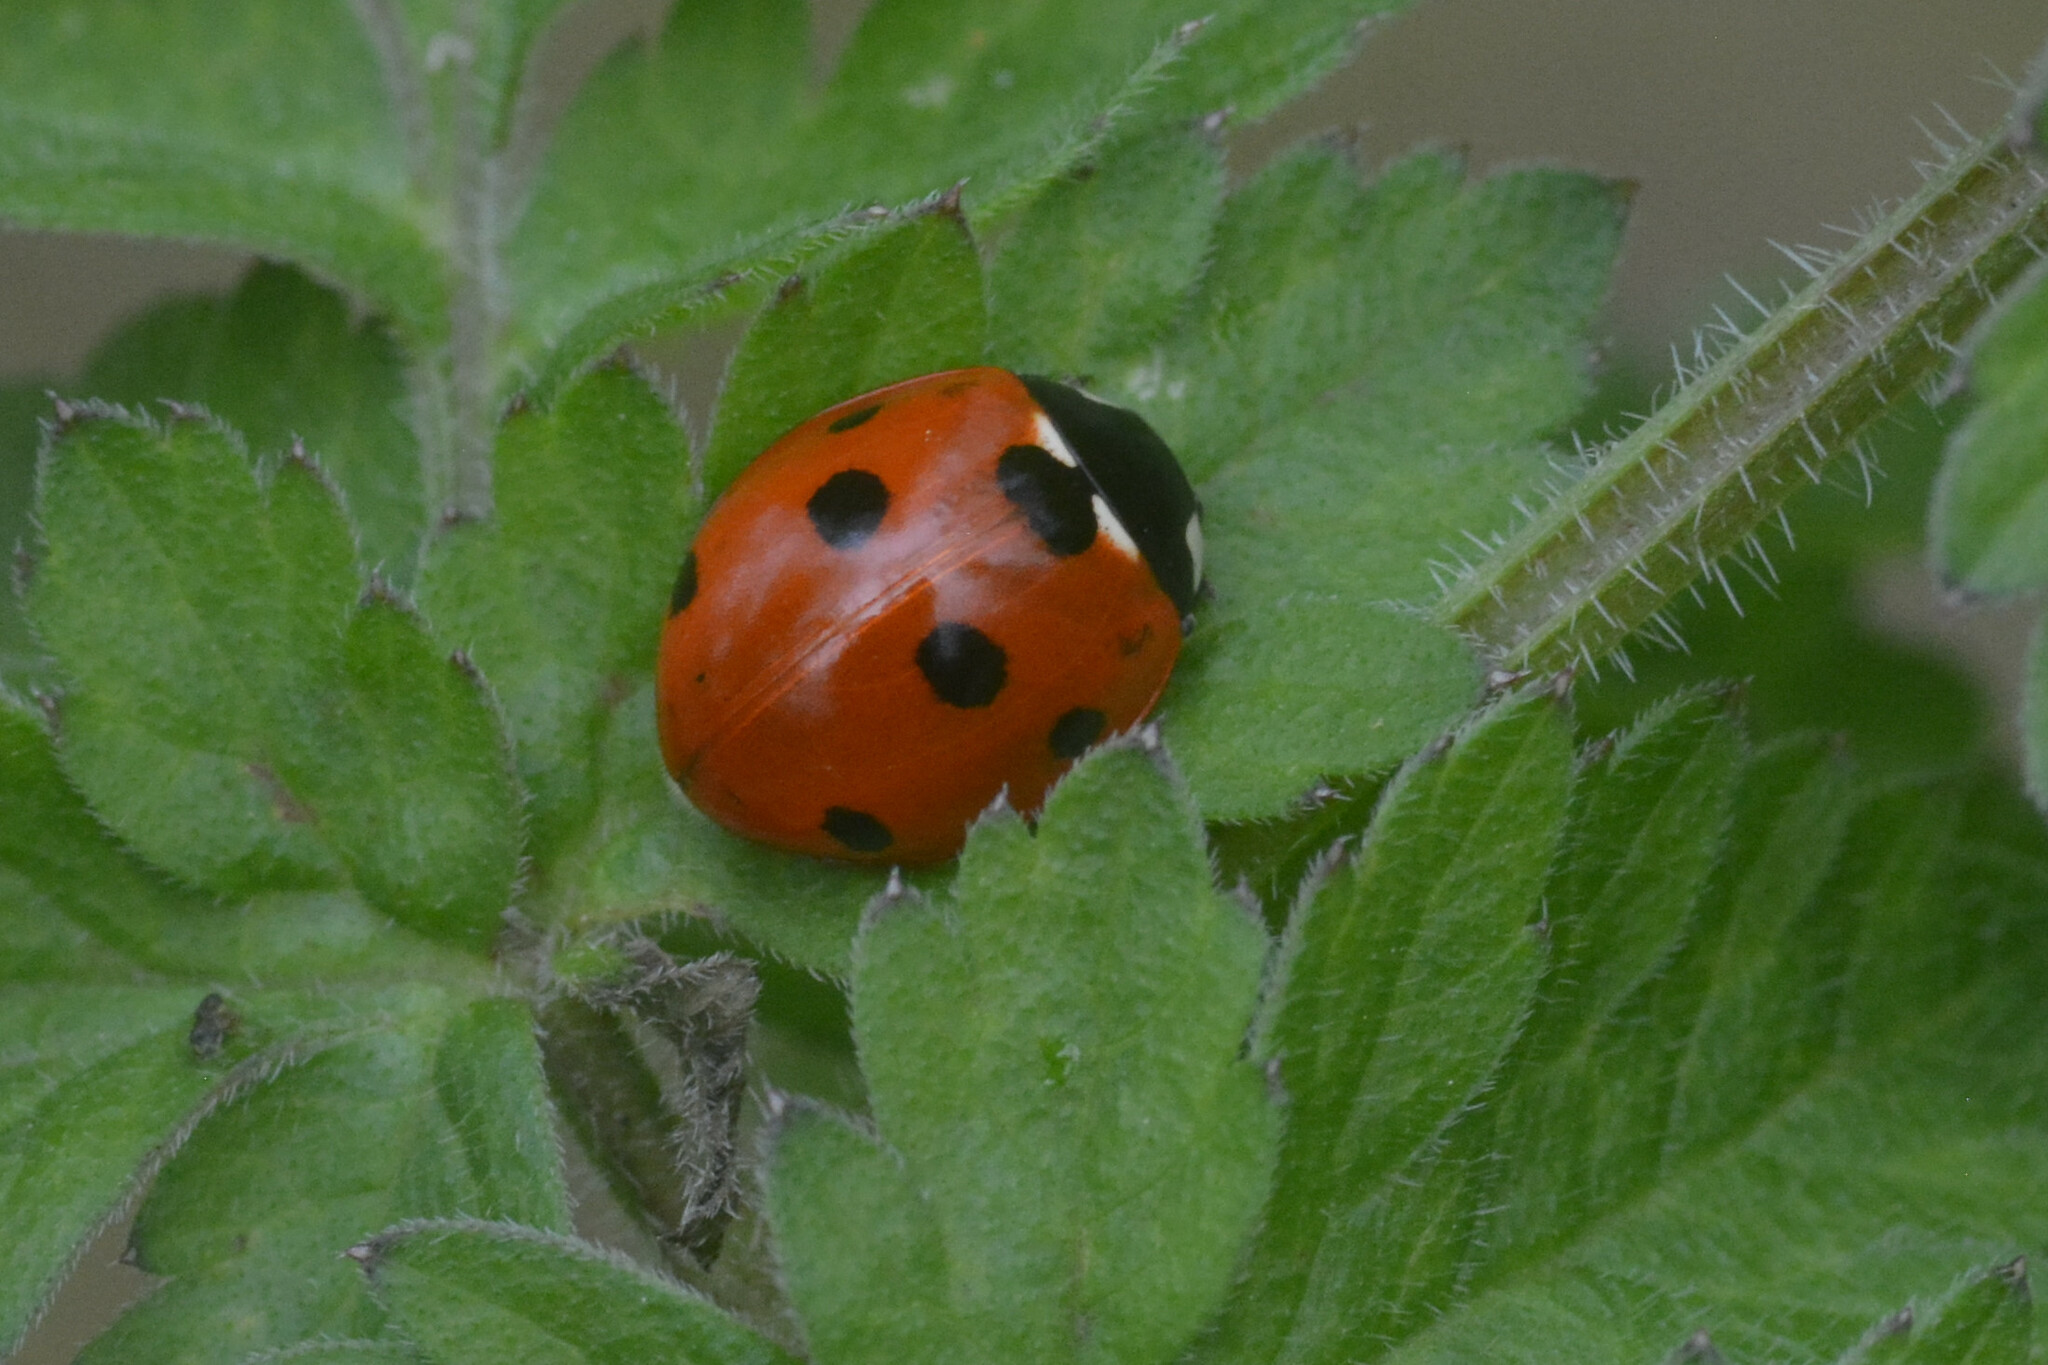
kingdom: Animalia
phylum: Arthropoda
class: Insecta
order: Coleoptera
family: Coccinellidae
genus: Coccinella
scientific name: Coccinella septempunctata
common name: Sevenspotted lady beetle
